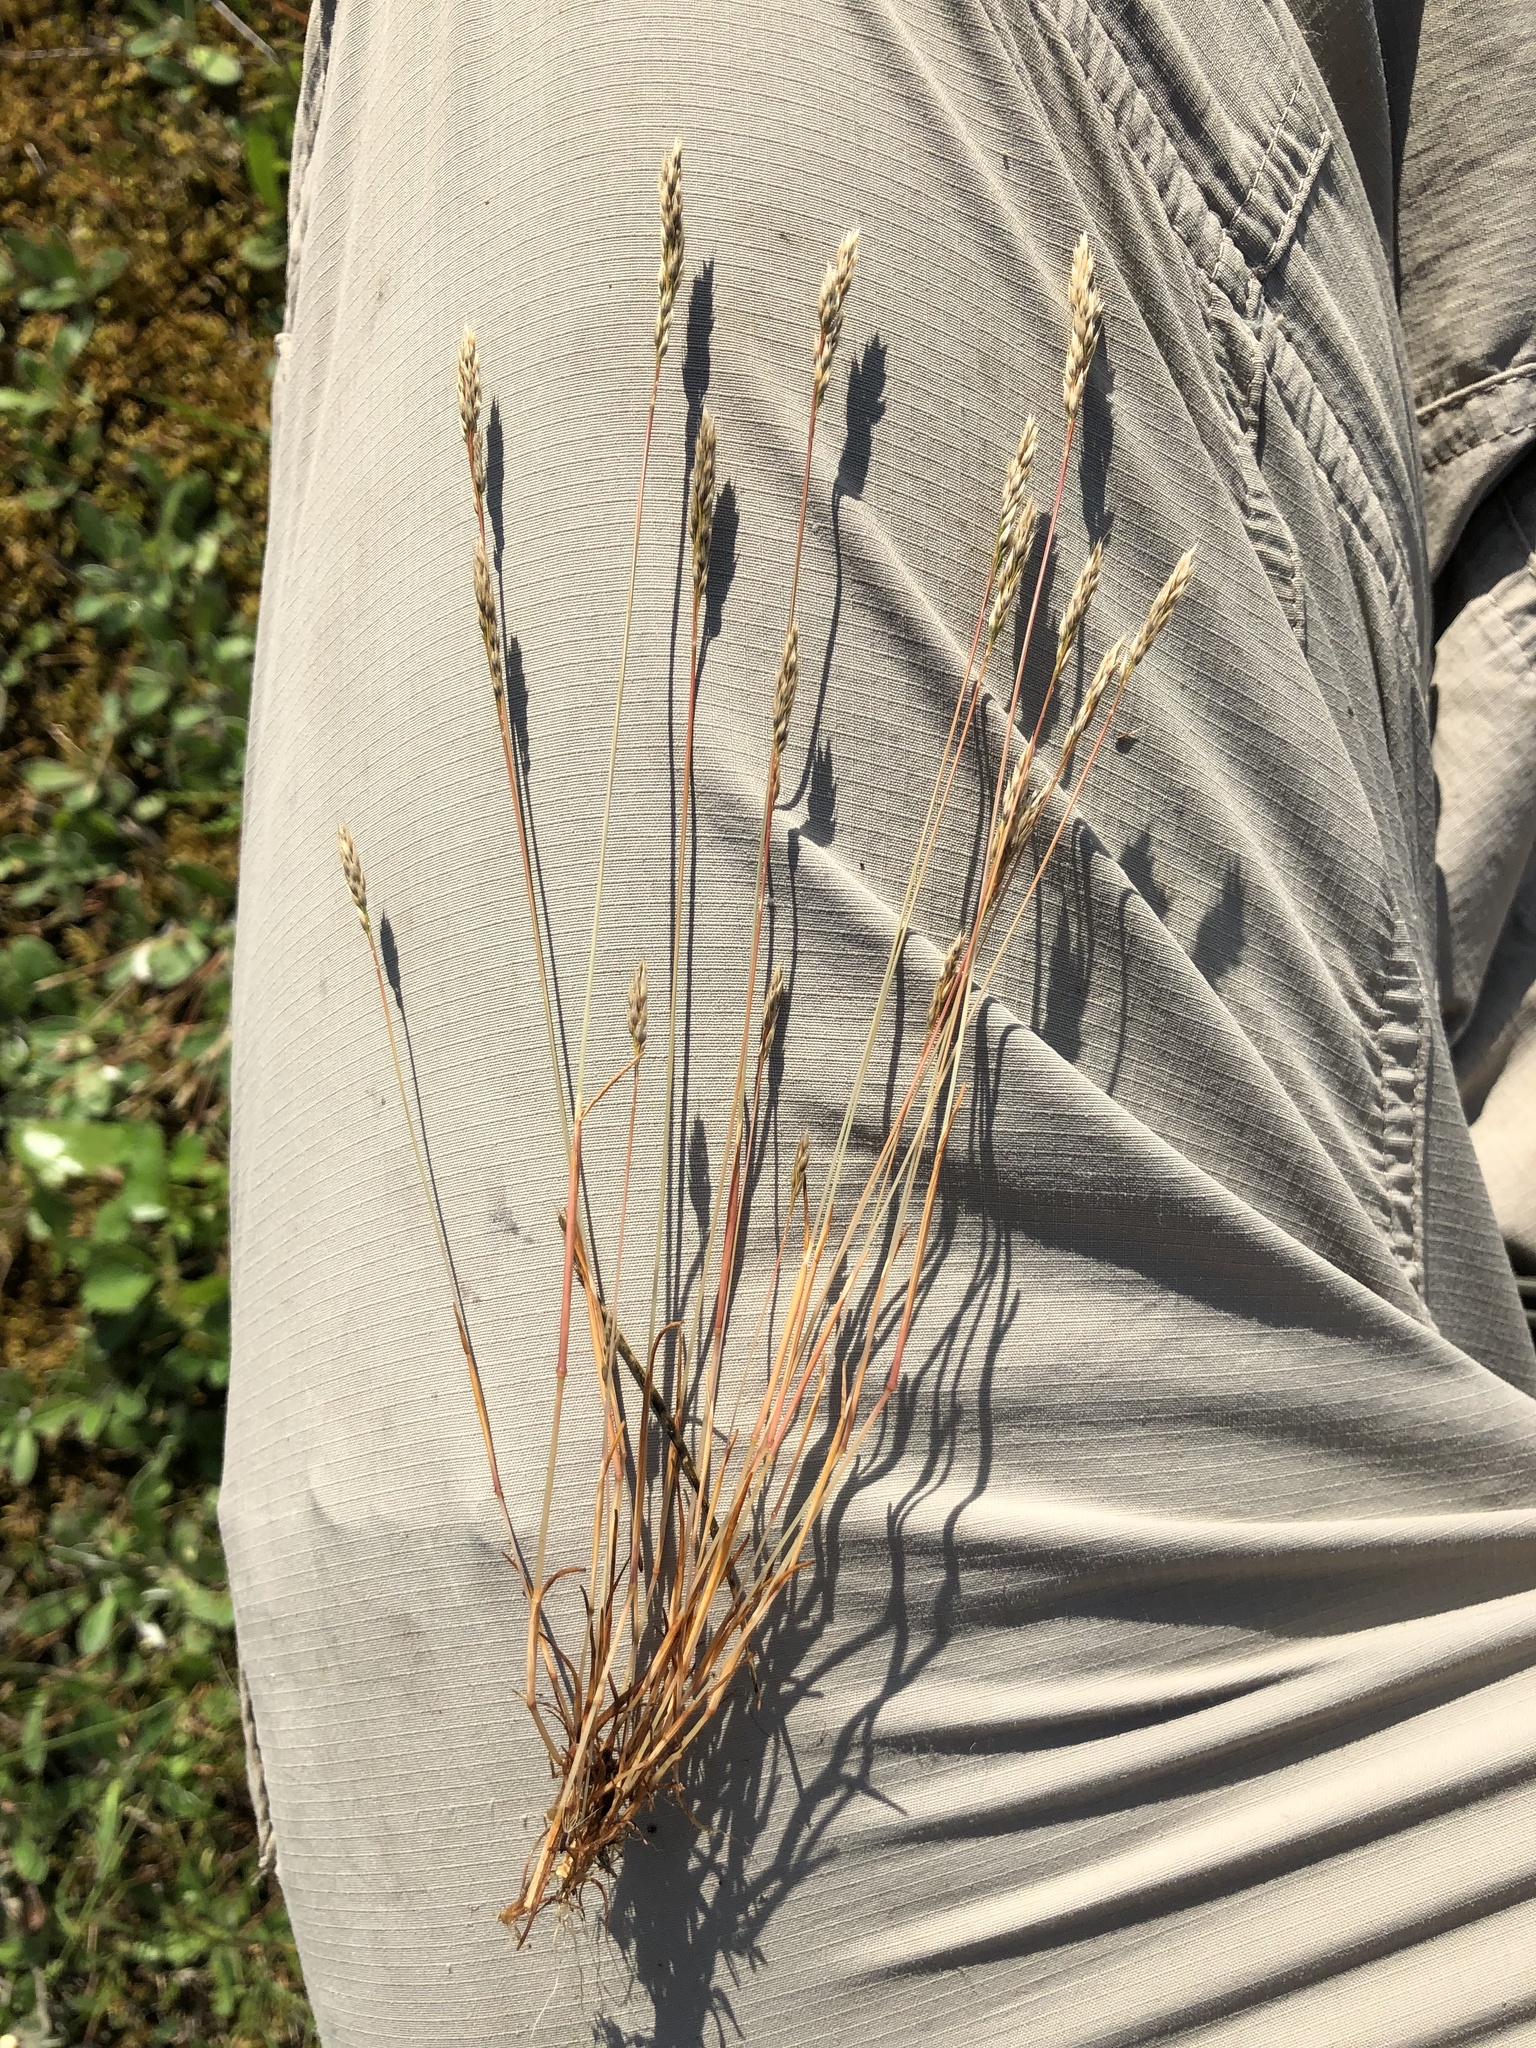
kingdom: Plantae
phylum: Tracheophyta
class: Liliopsida
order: Poales
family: Poaceae
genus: Aira
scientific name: Aira praecox
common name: Early hair-grass
